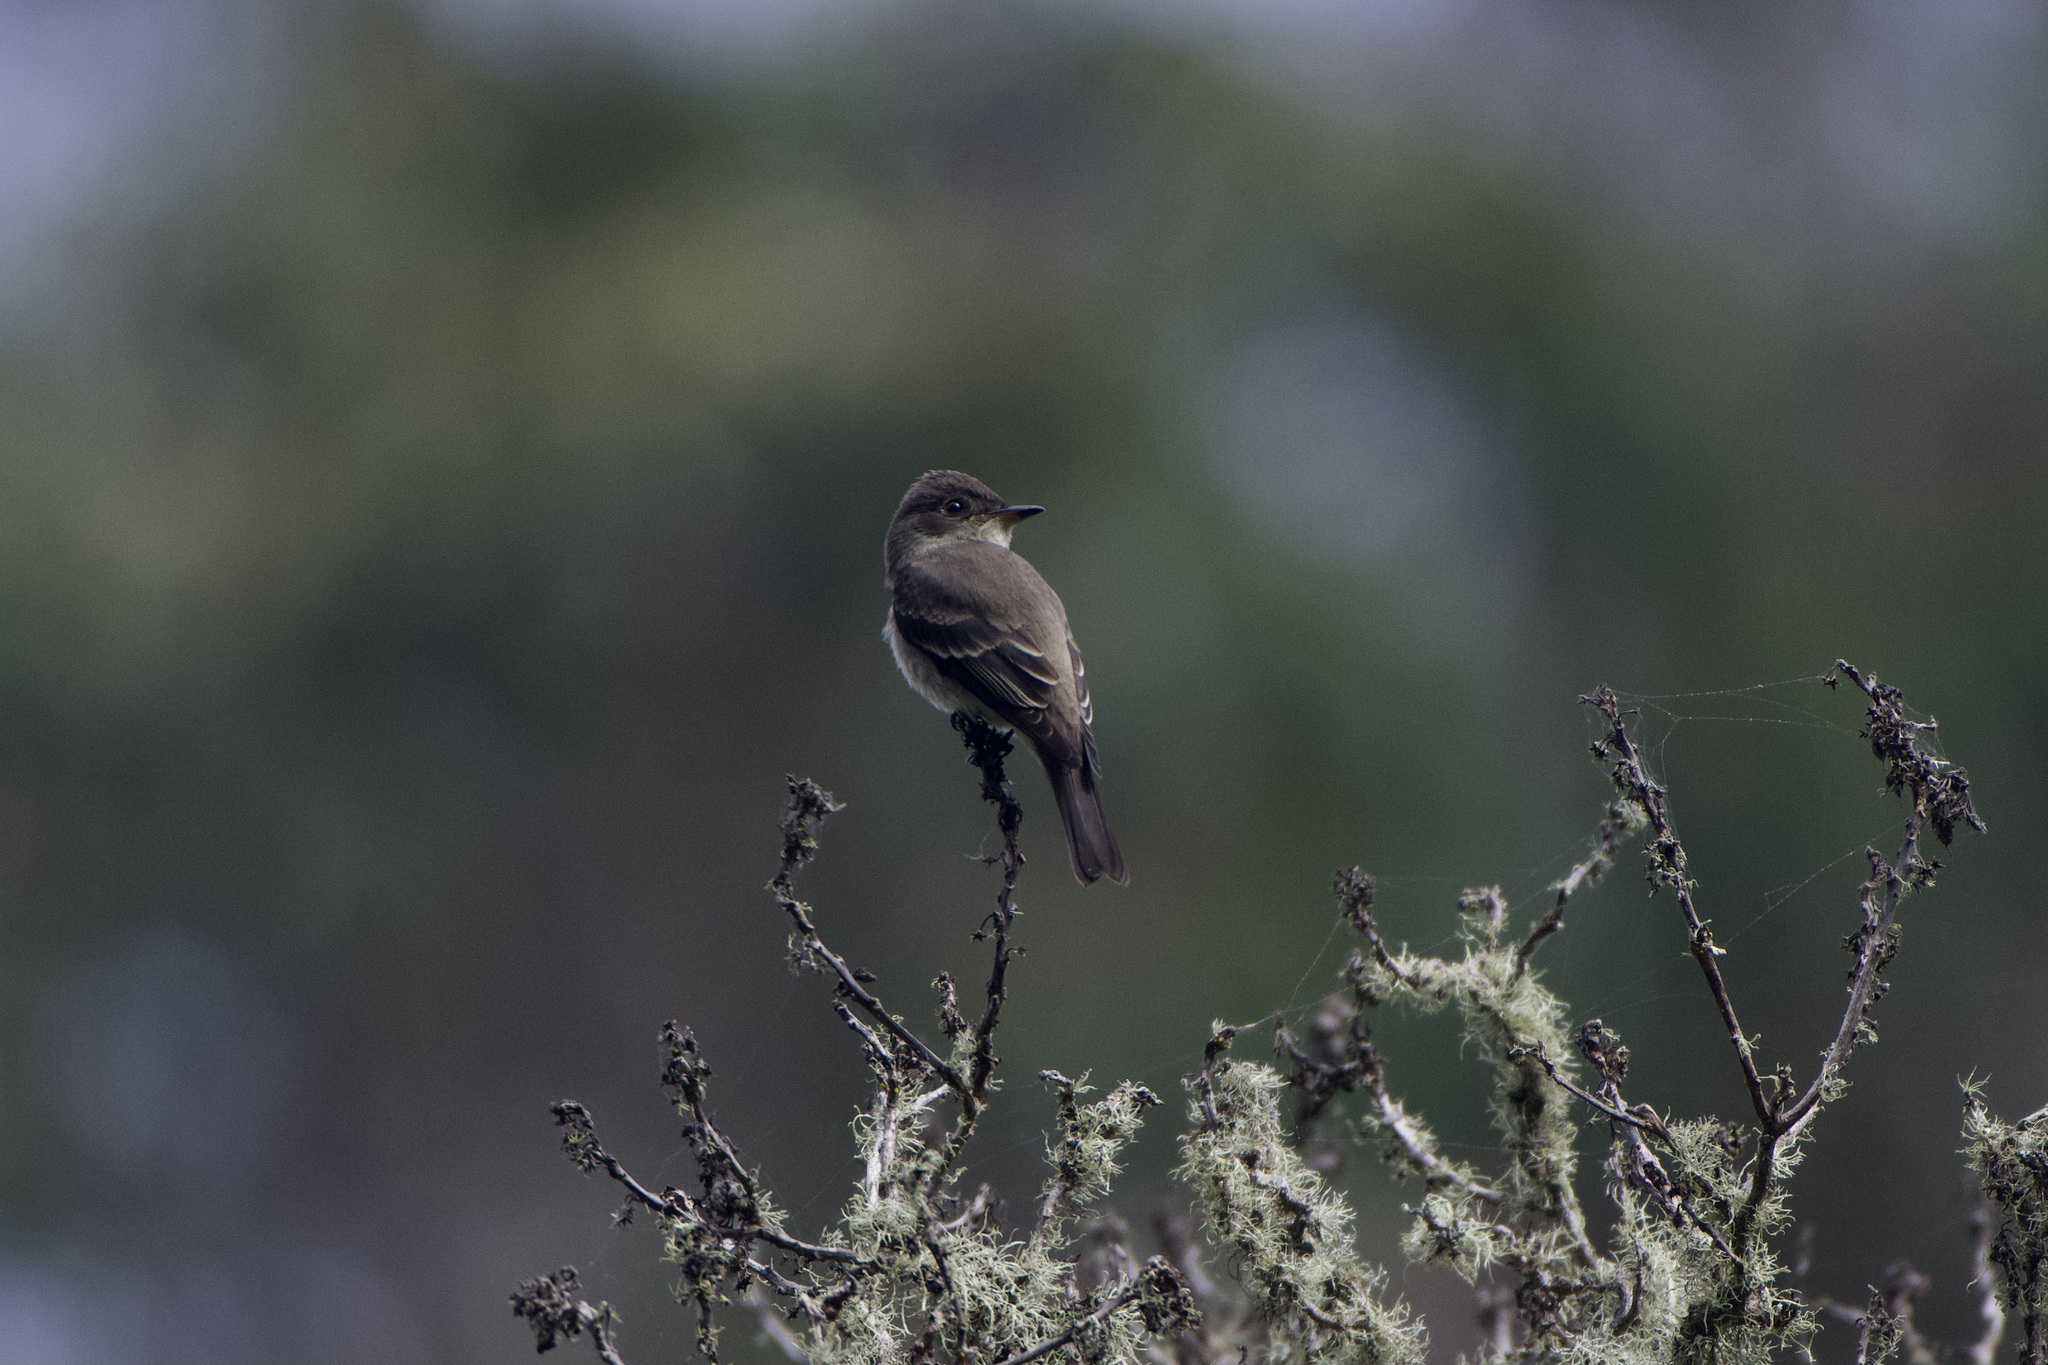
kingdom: Animalia
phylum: Chordata
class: Aves
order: Passeriformes
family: Tyrannidae
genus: Contopus
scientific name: Contopus sordidulus
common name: Western wood-pewee
